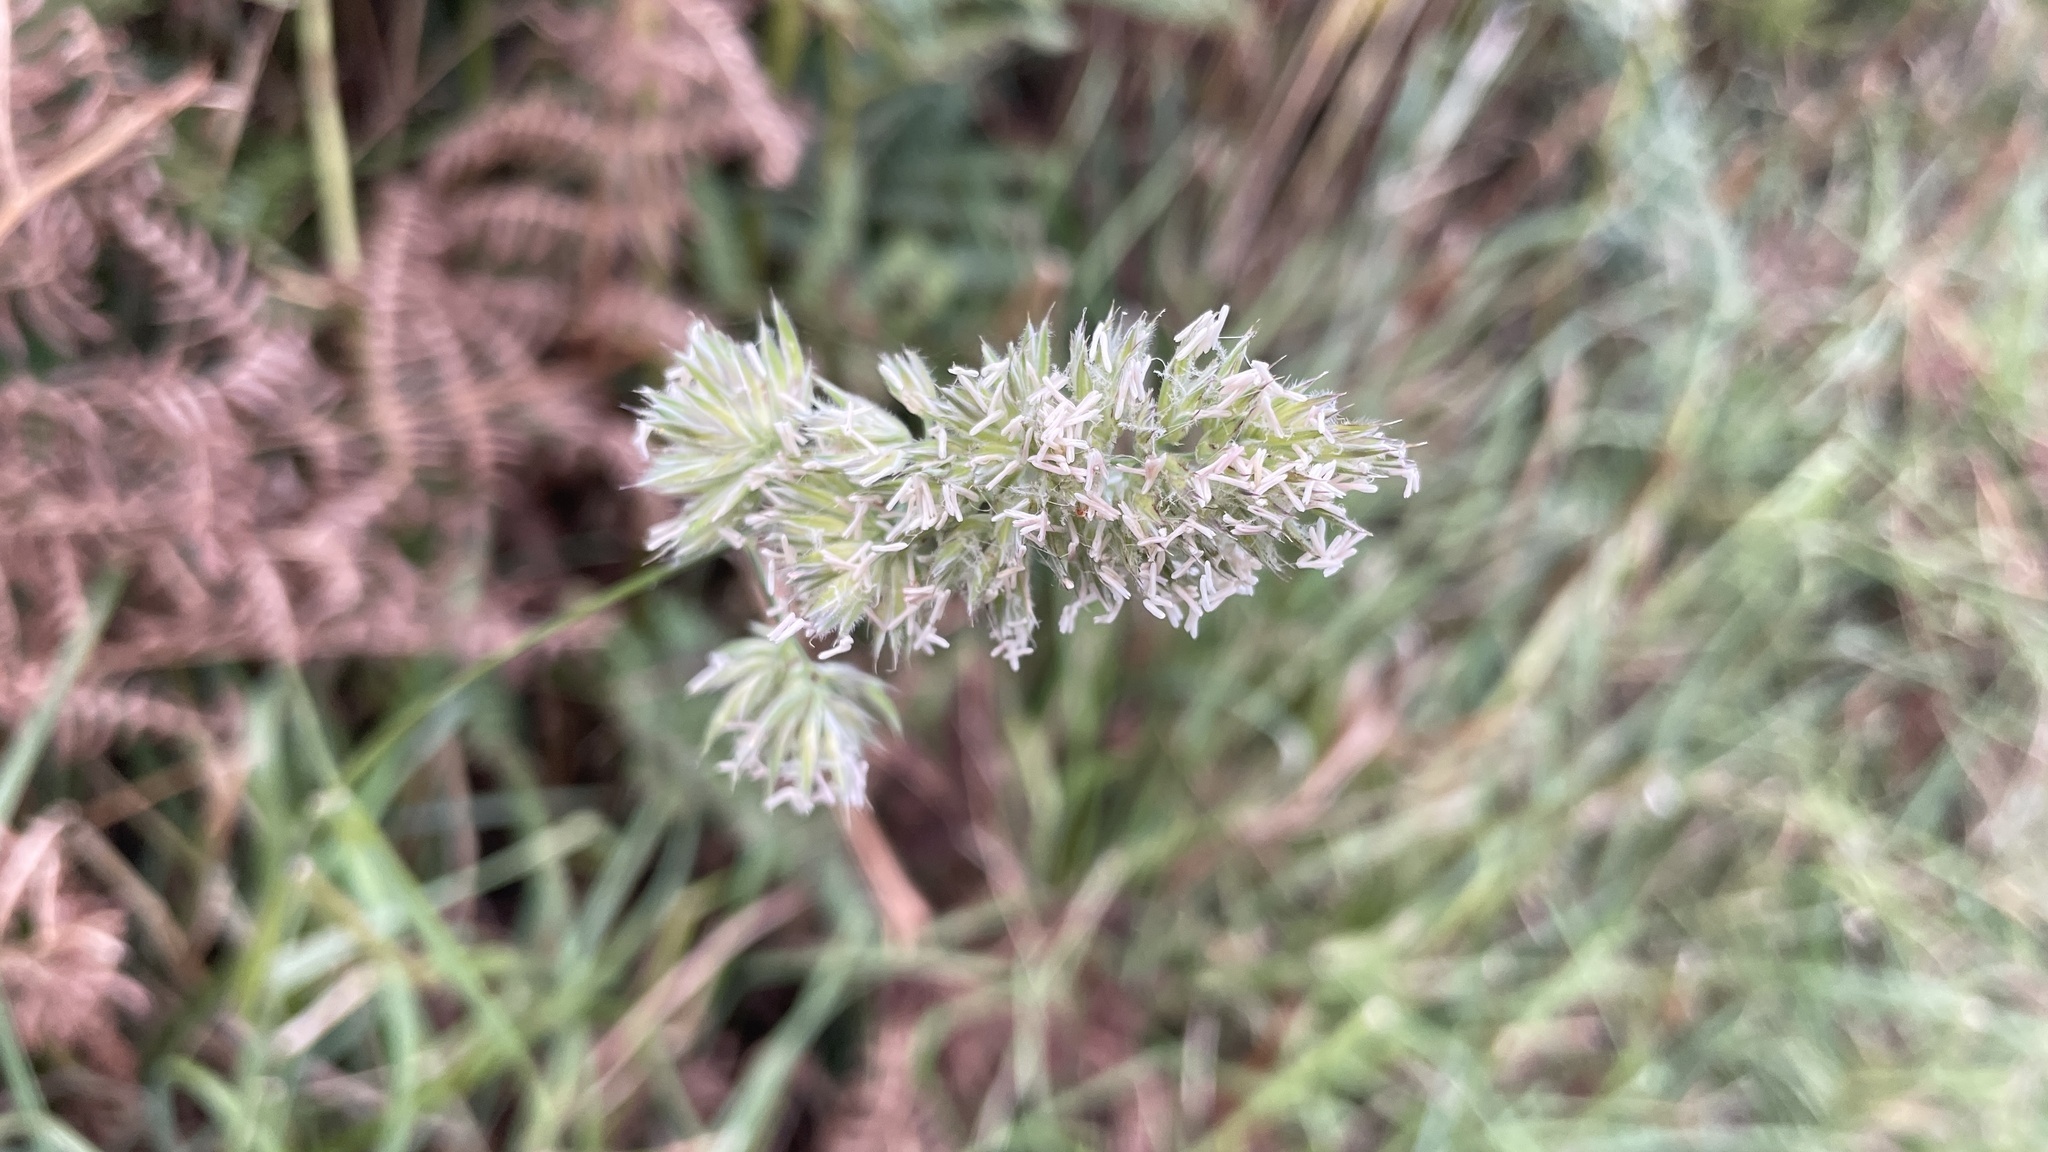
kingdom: Plantae
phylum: Tracheophyta
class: Liliopsida
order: Poales
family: Poaceae
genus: Dactylis
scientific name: Dactylis glomerata
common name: Orchardgrass
